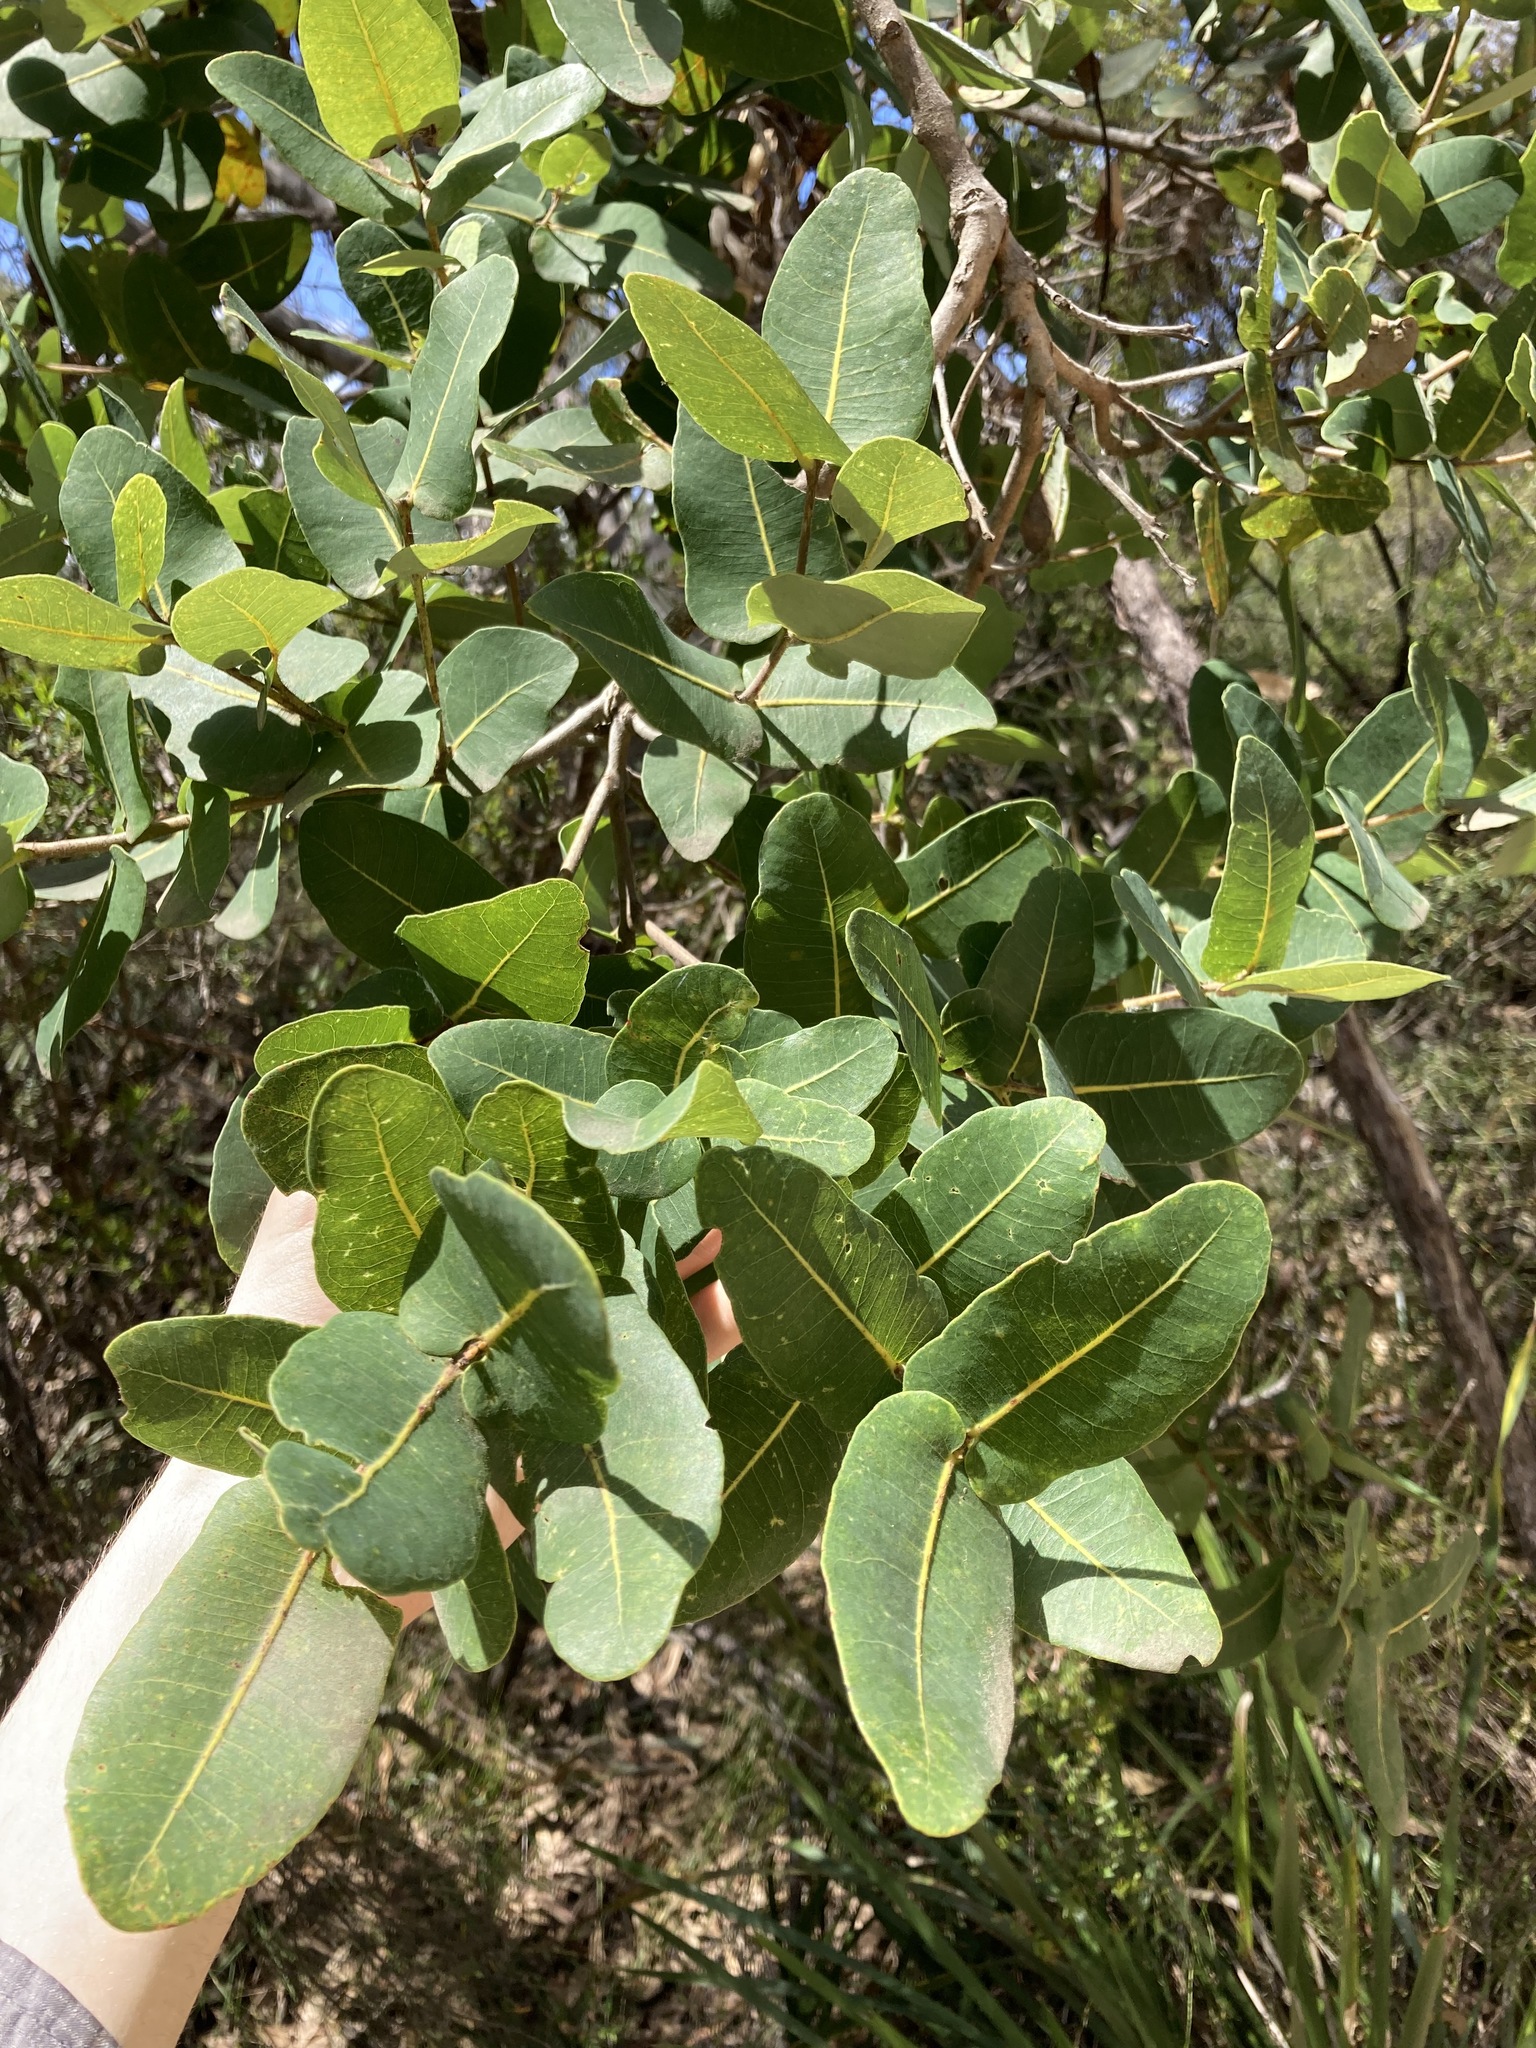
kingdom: Plantae
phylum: Tracheophyta
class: Magnoliopsida
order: Myrtales
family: Myrtaceae
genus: Angophora
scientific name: Angophora hispida
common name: Dwarf-apple
